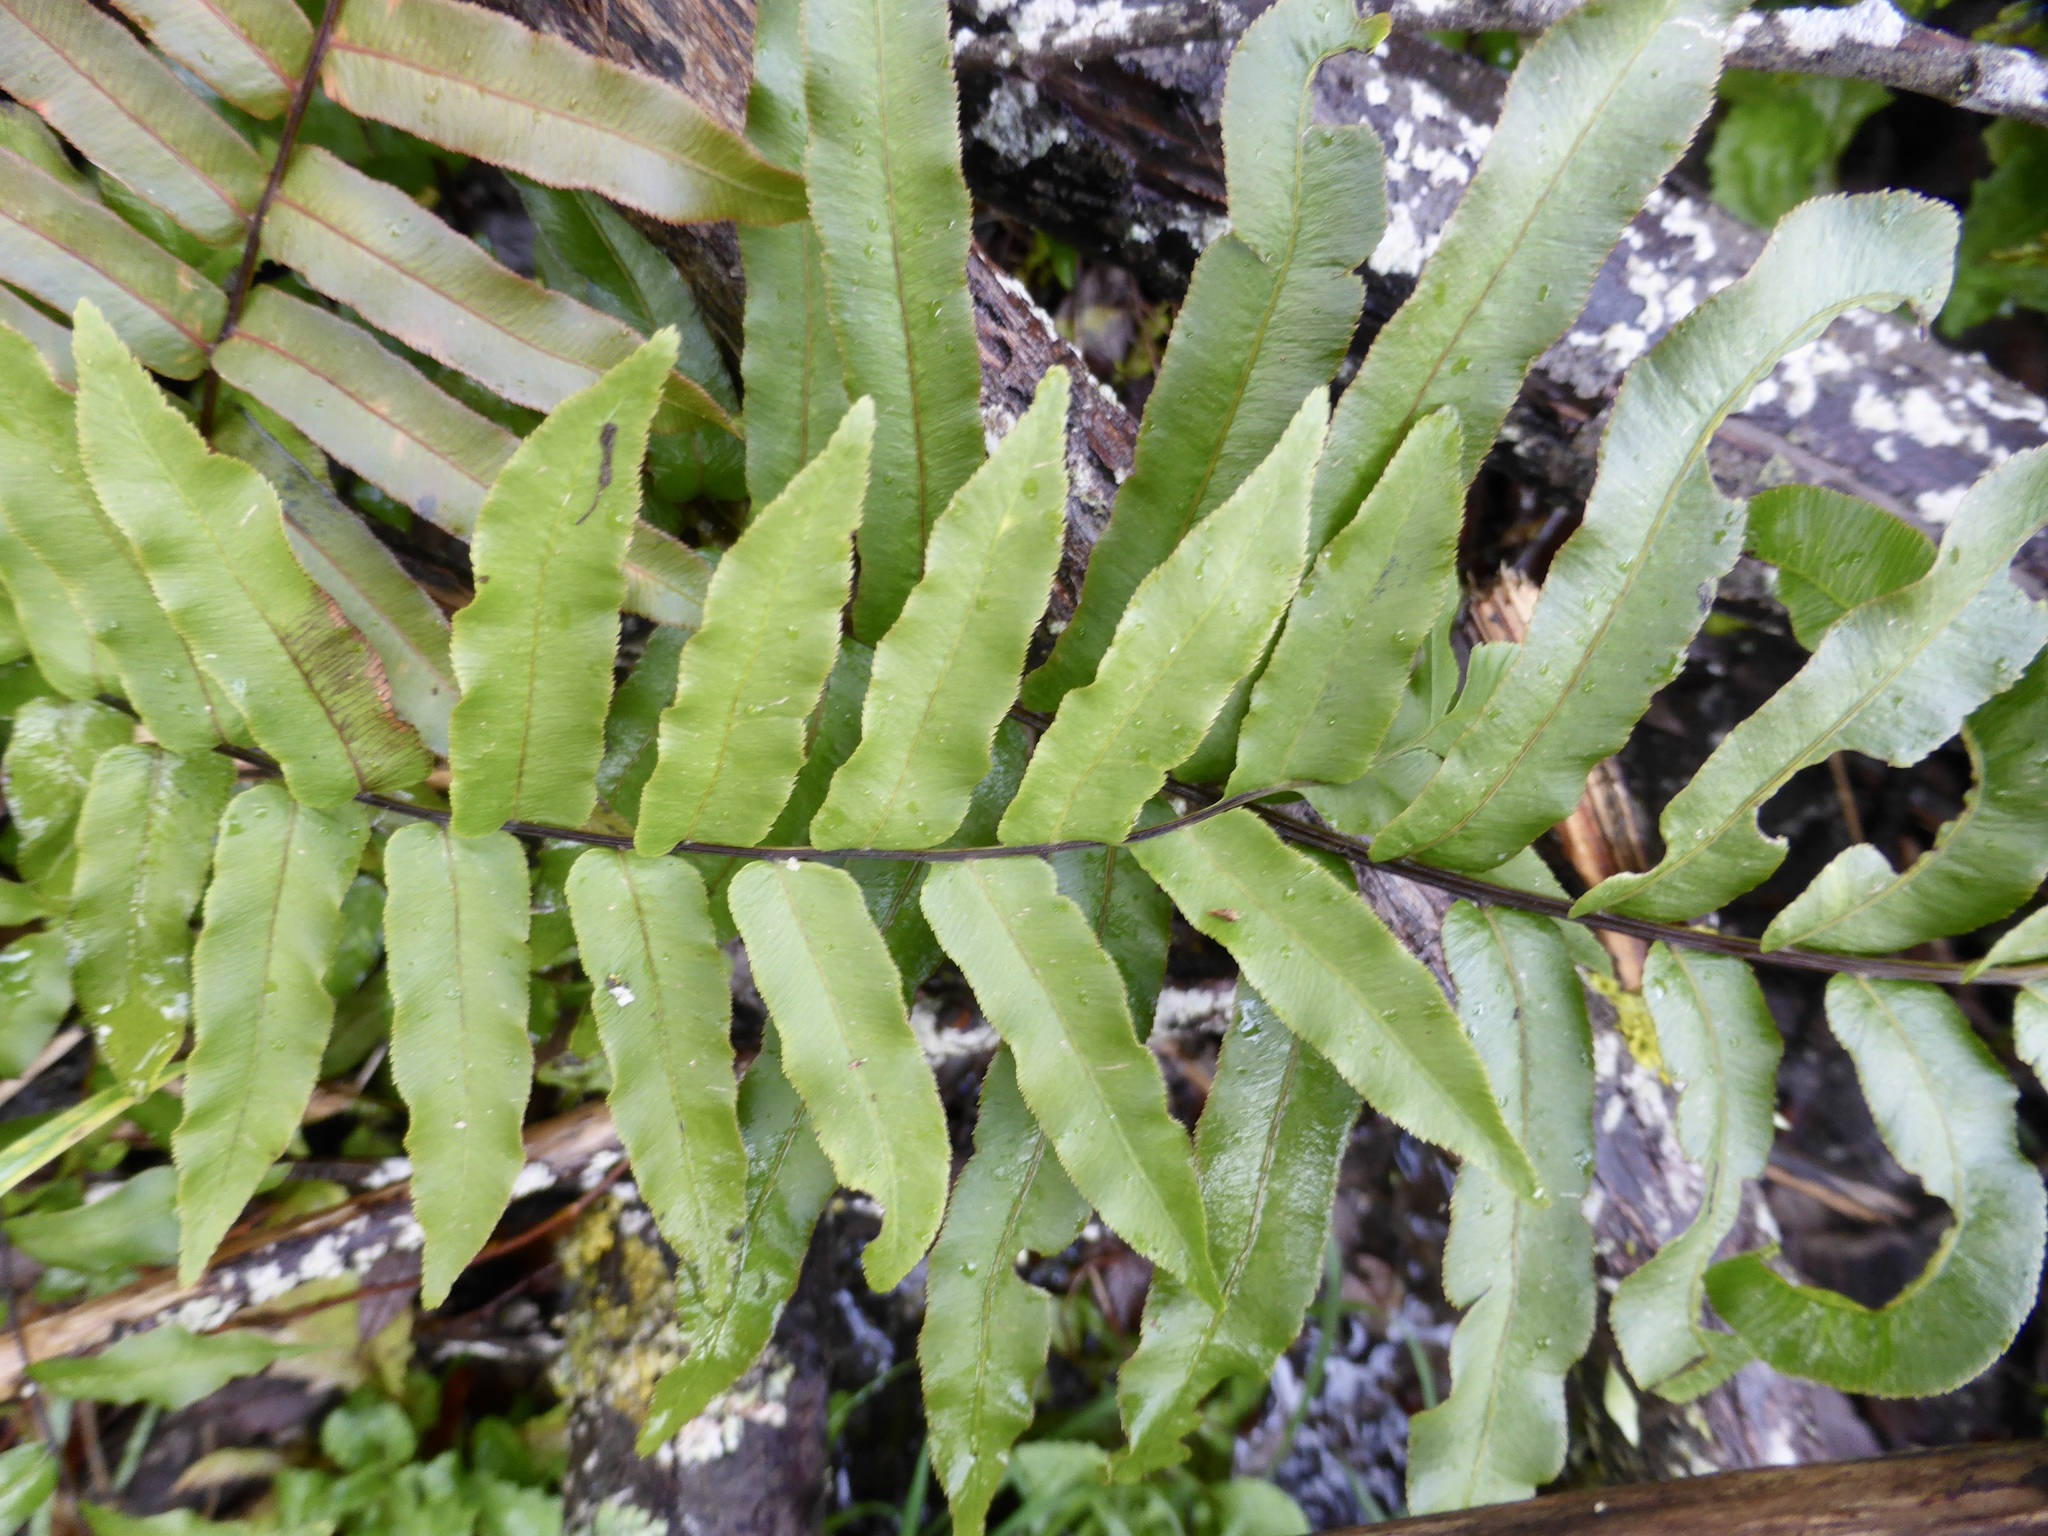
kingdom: Plantae
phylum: Tracheophyta
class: Polypodiopsida
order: Polypodiales
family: Blechnaceae
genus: Parablechnum
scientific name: Parablechnum minus
